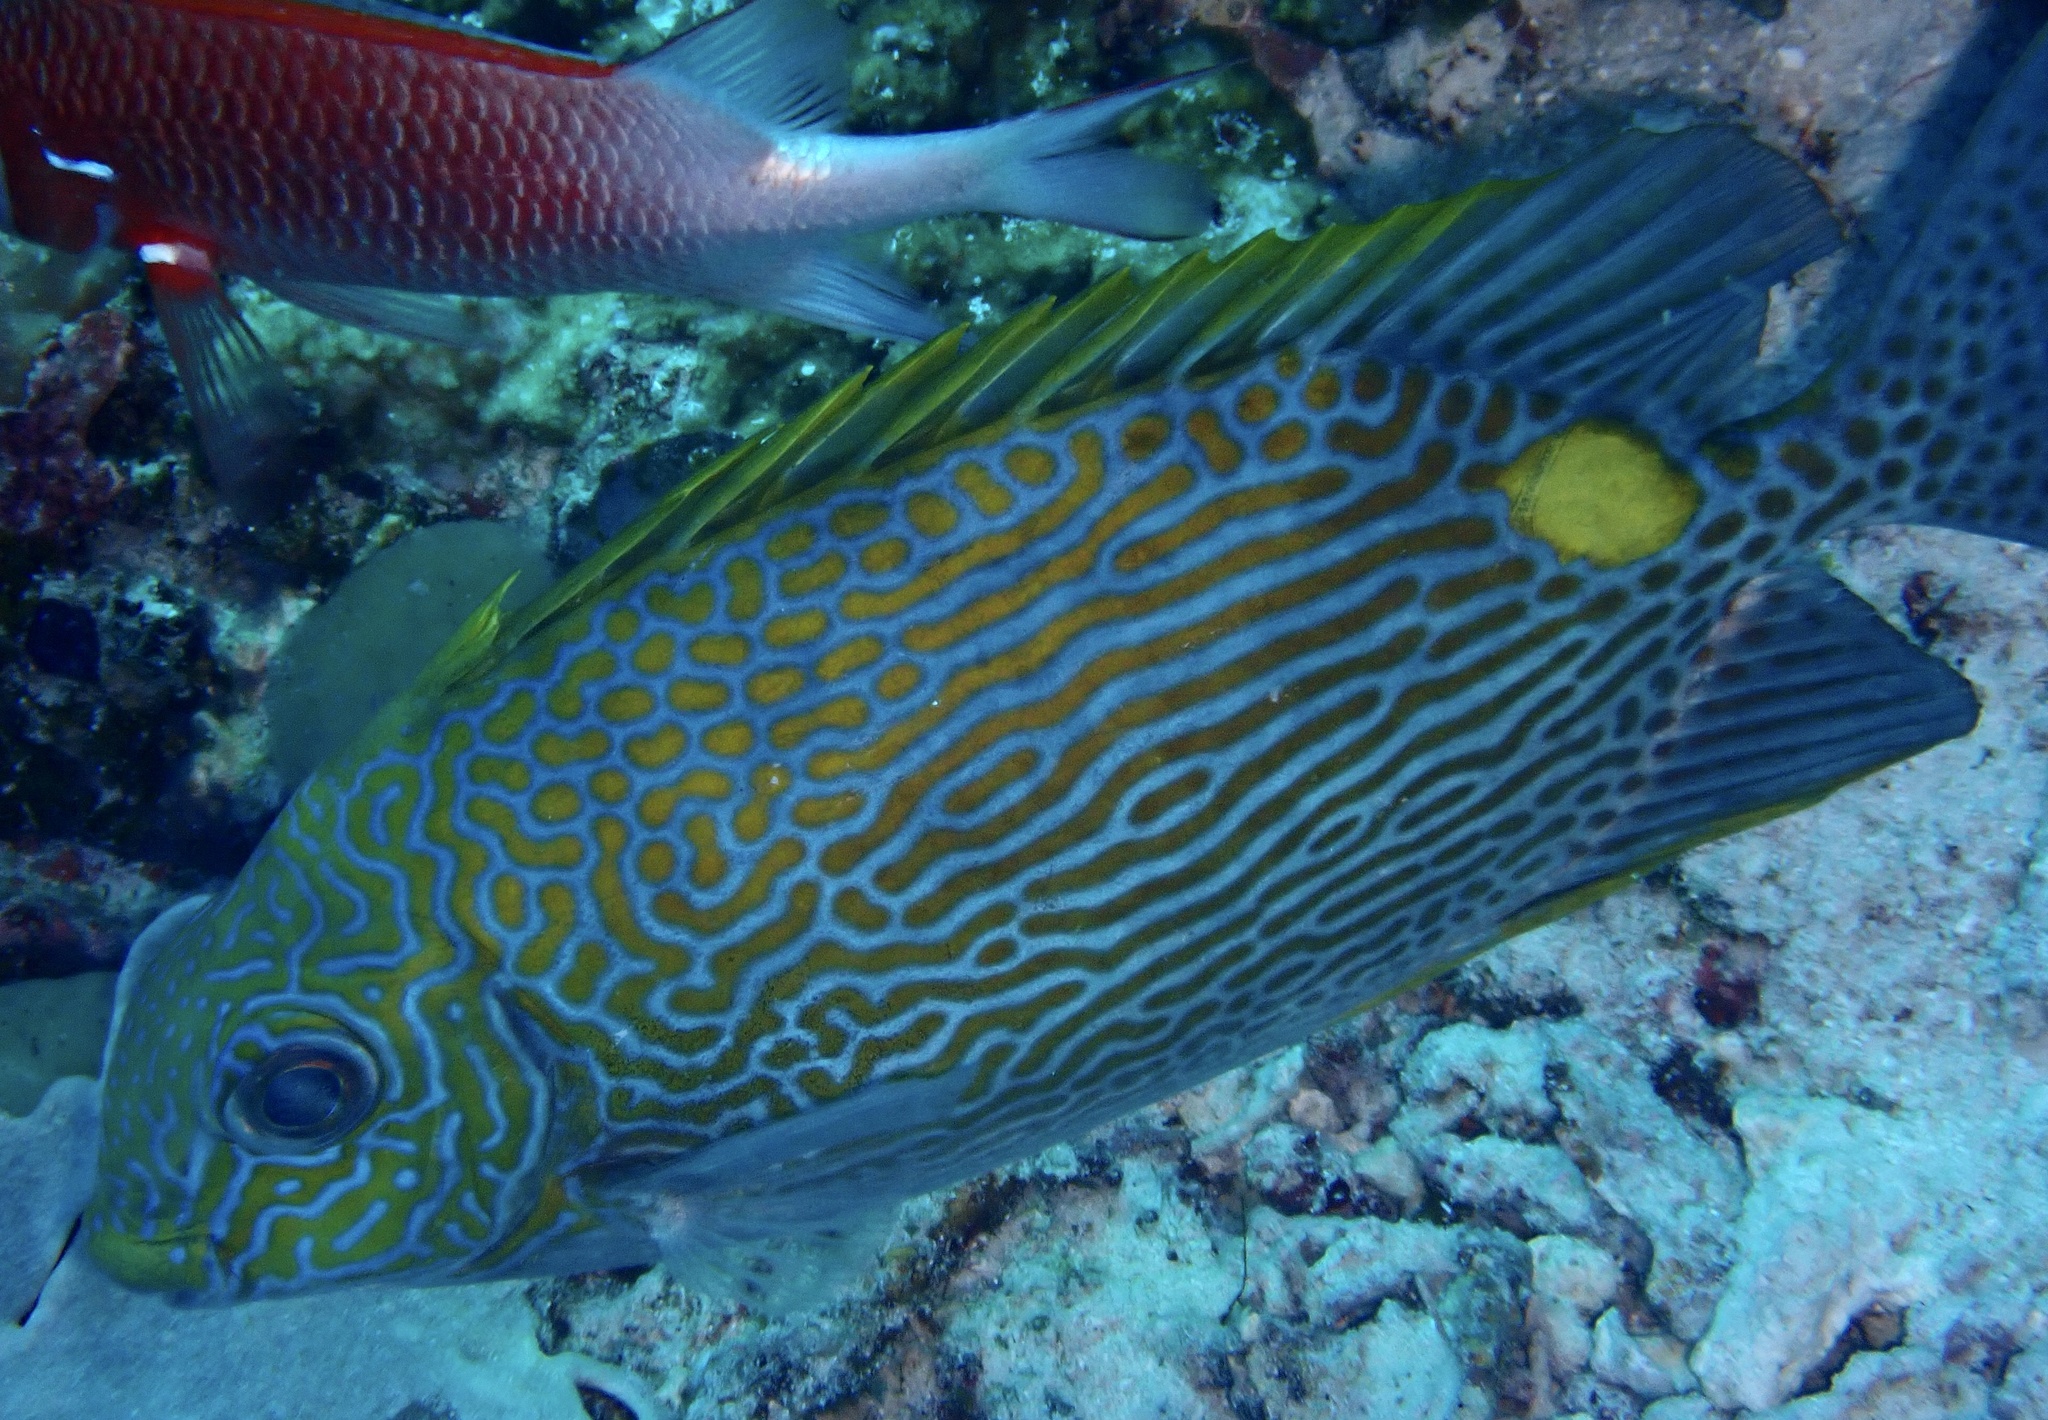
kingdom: Animalia
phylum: Chordata
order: Perciformes
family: Siganidae
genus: Siganus
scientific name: Siganus lineatus
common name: Lined rabbitfish
